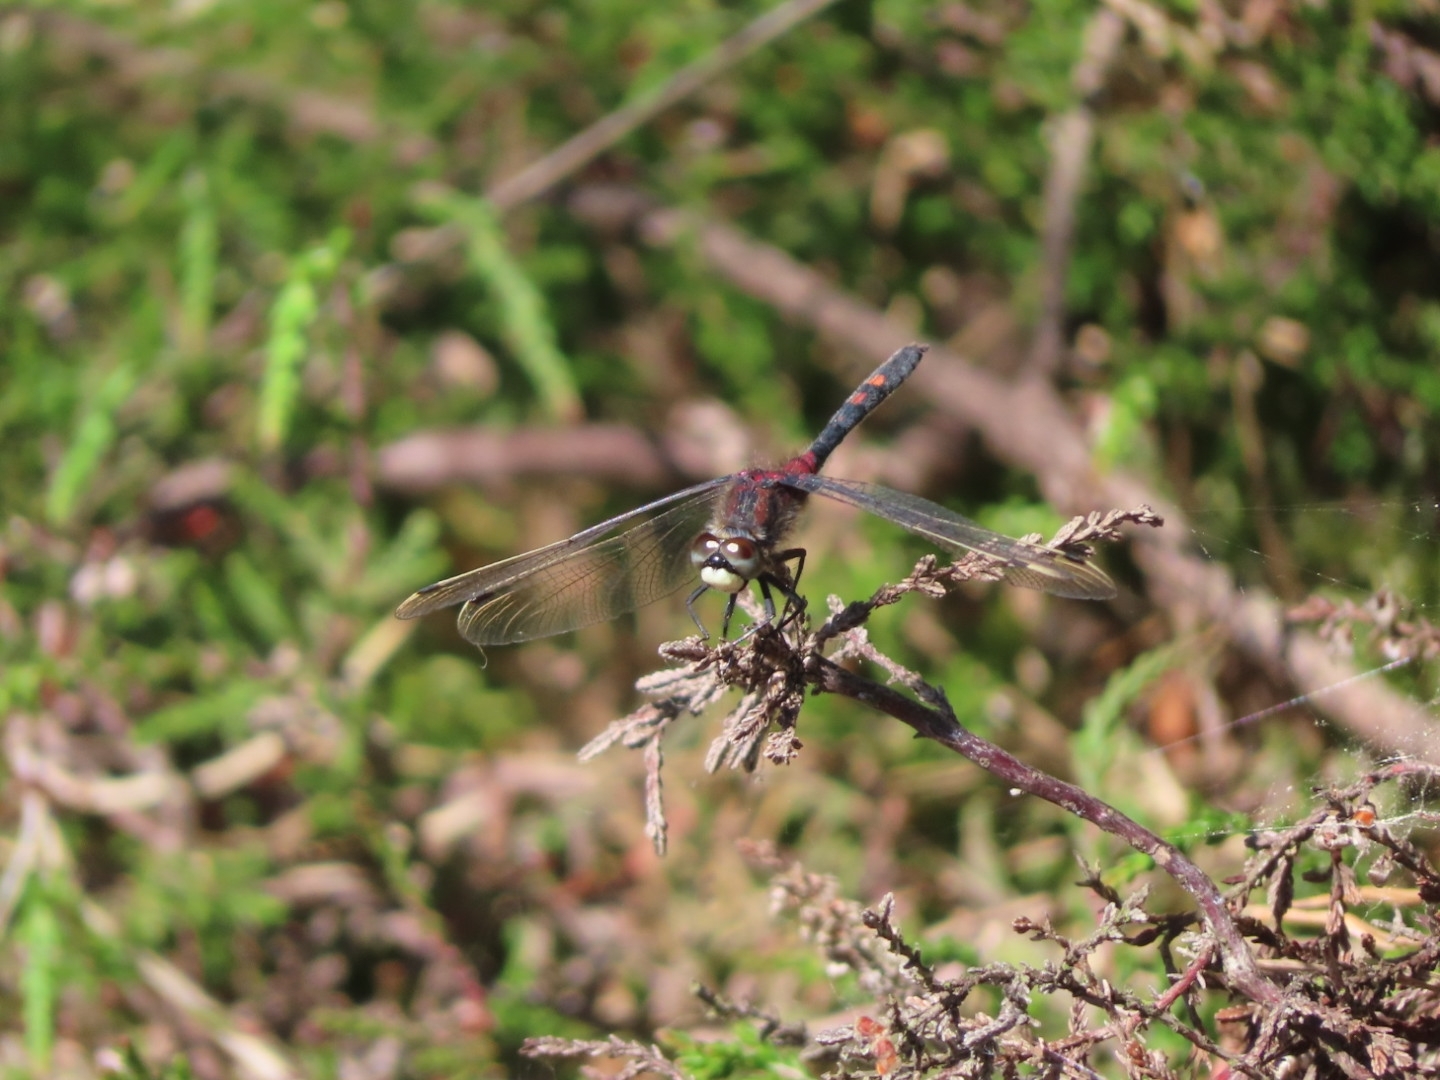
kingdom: Animalia
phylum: Arthropoda
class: Insecta
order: Odonata
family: Libellulidae
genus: Leucorrhinia
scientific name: Leucorrhinia dubia
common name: White-faced darter
